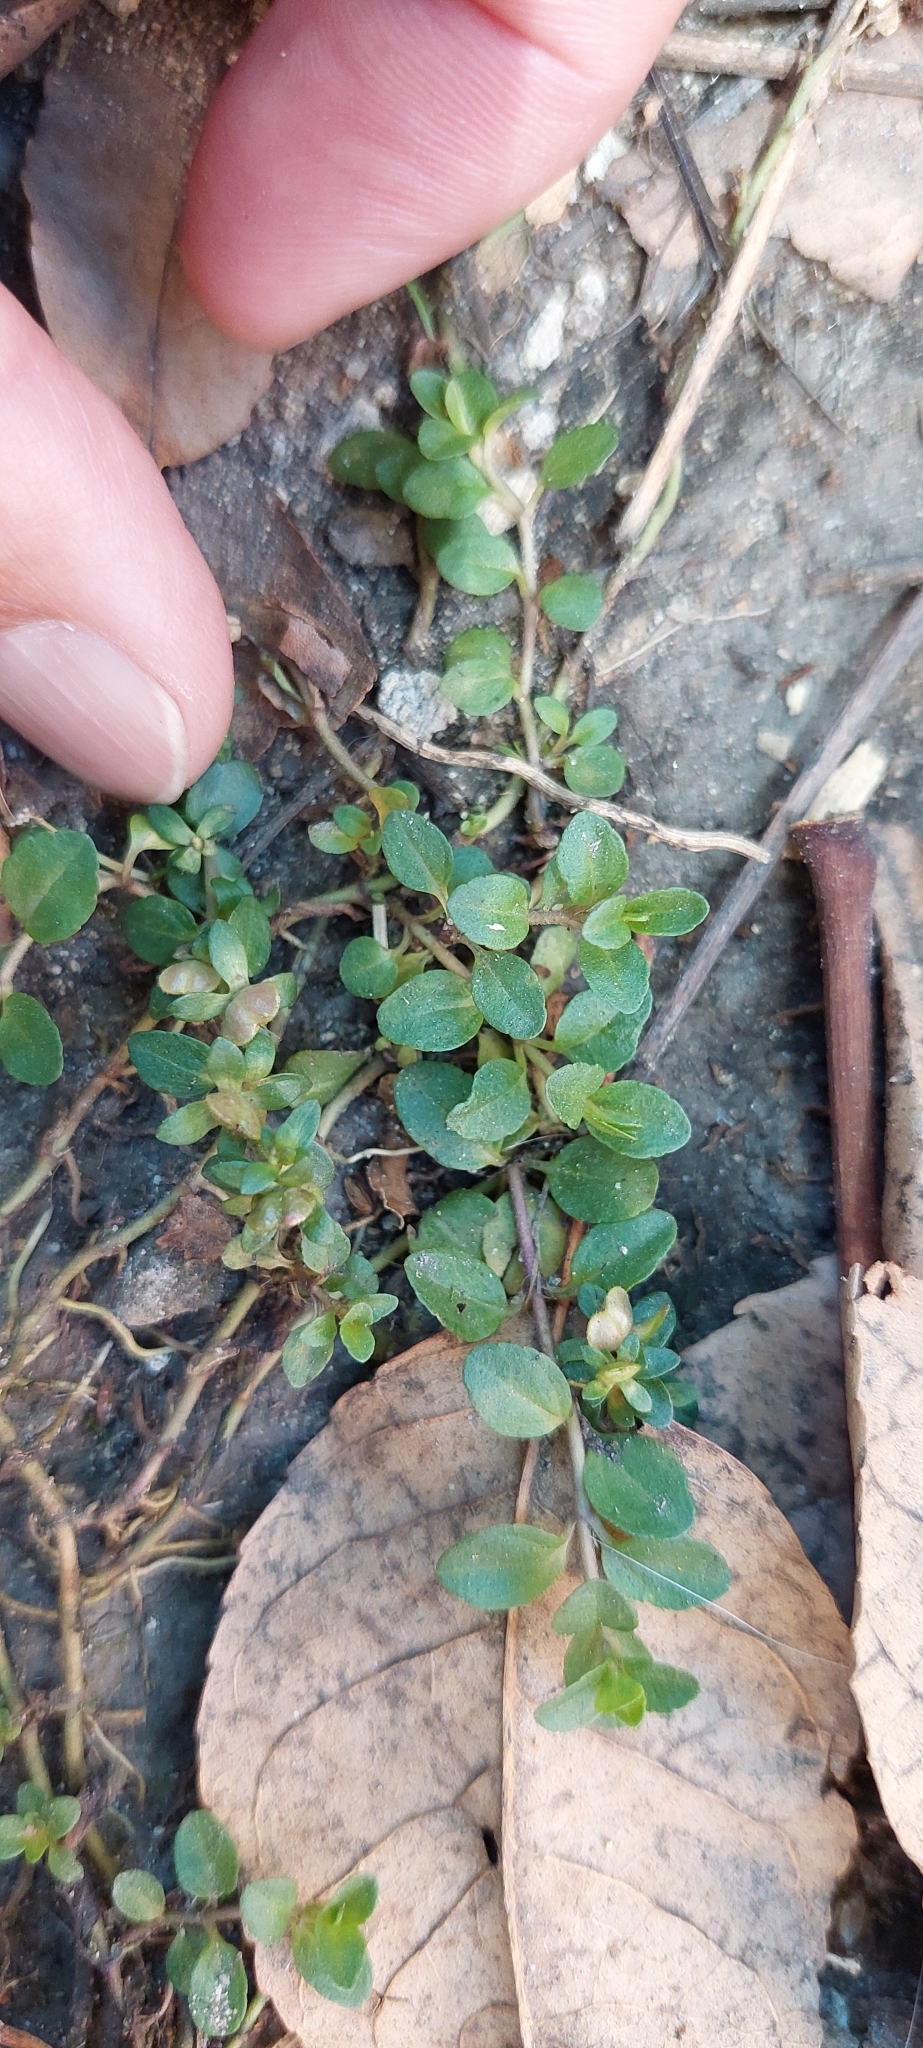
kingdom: Plantae
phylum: Tracheophyta
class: Magnoliopsida
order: Lamiales
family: Plantaginaceae
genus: Veronica
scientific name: Veronica serpyllifolia
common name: Thyme-leaved speedwell
